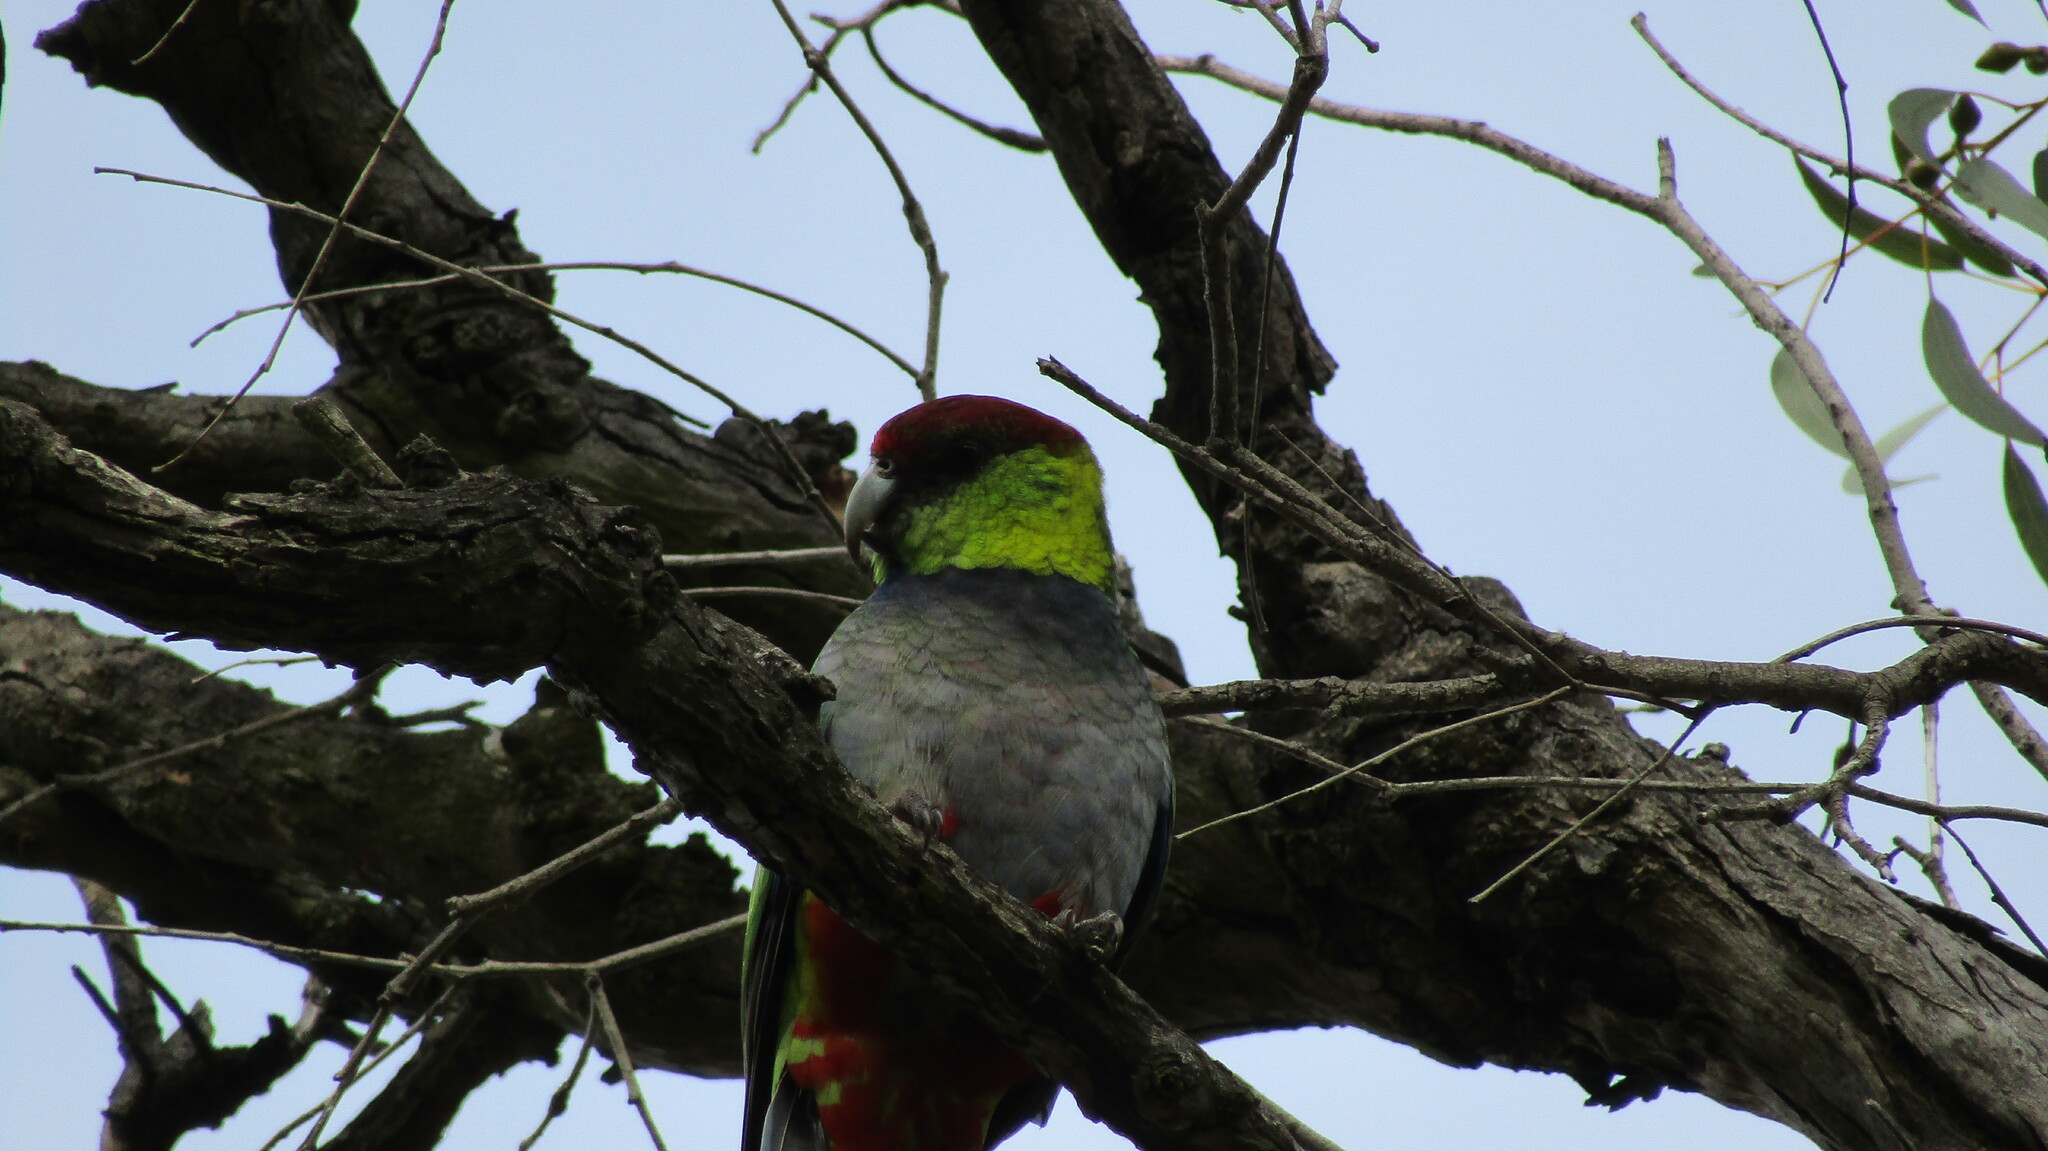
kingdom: Animalia
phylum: Chordata
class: Aves
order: Psittaciformes
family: Psittacidae
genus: Purpureicephalus
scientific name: Purpureicephalus spurius
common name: Red-capped parrot
